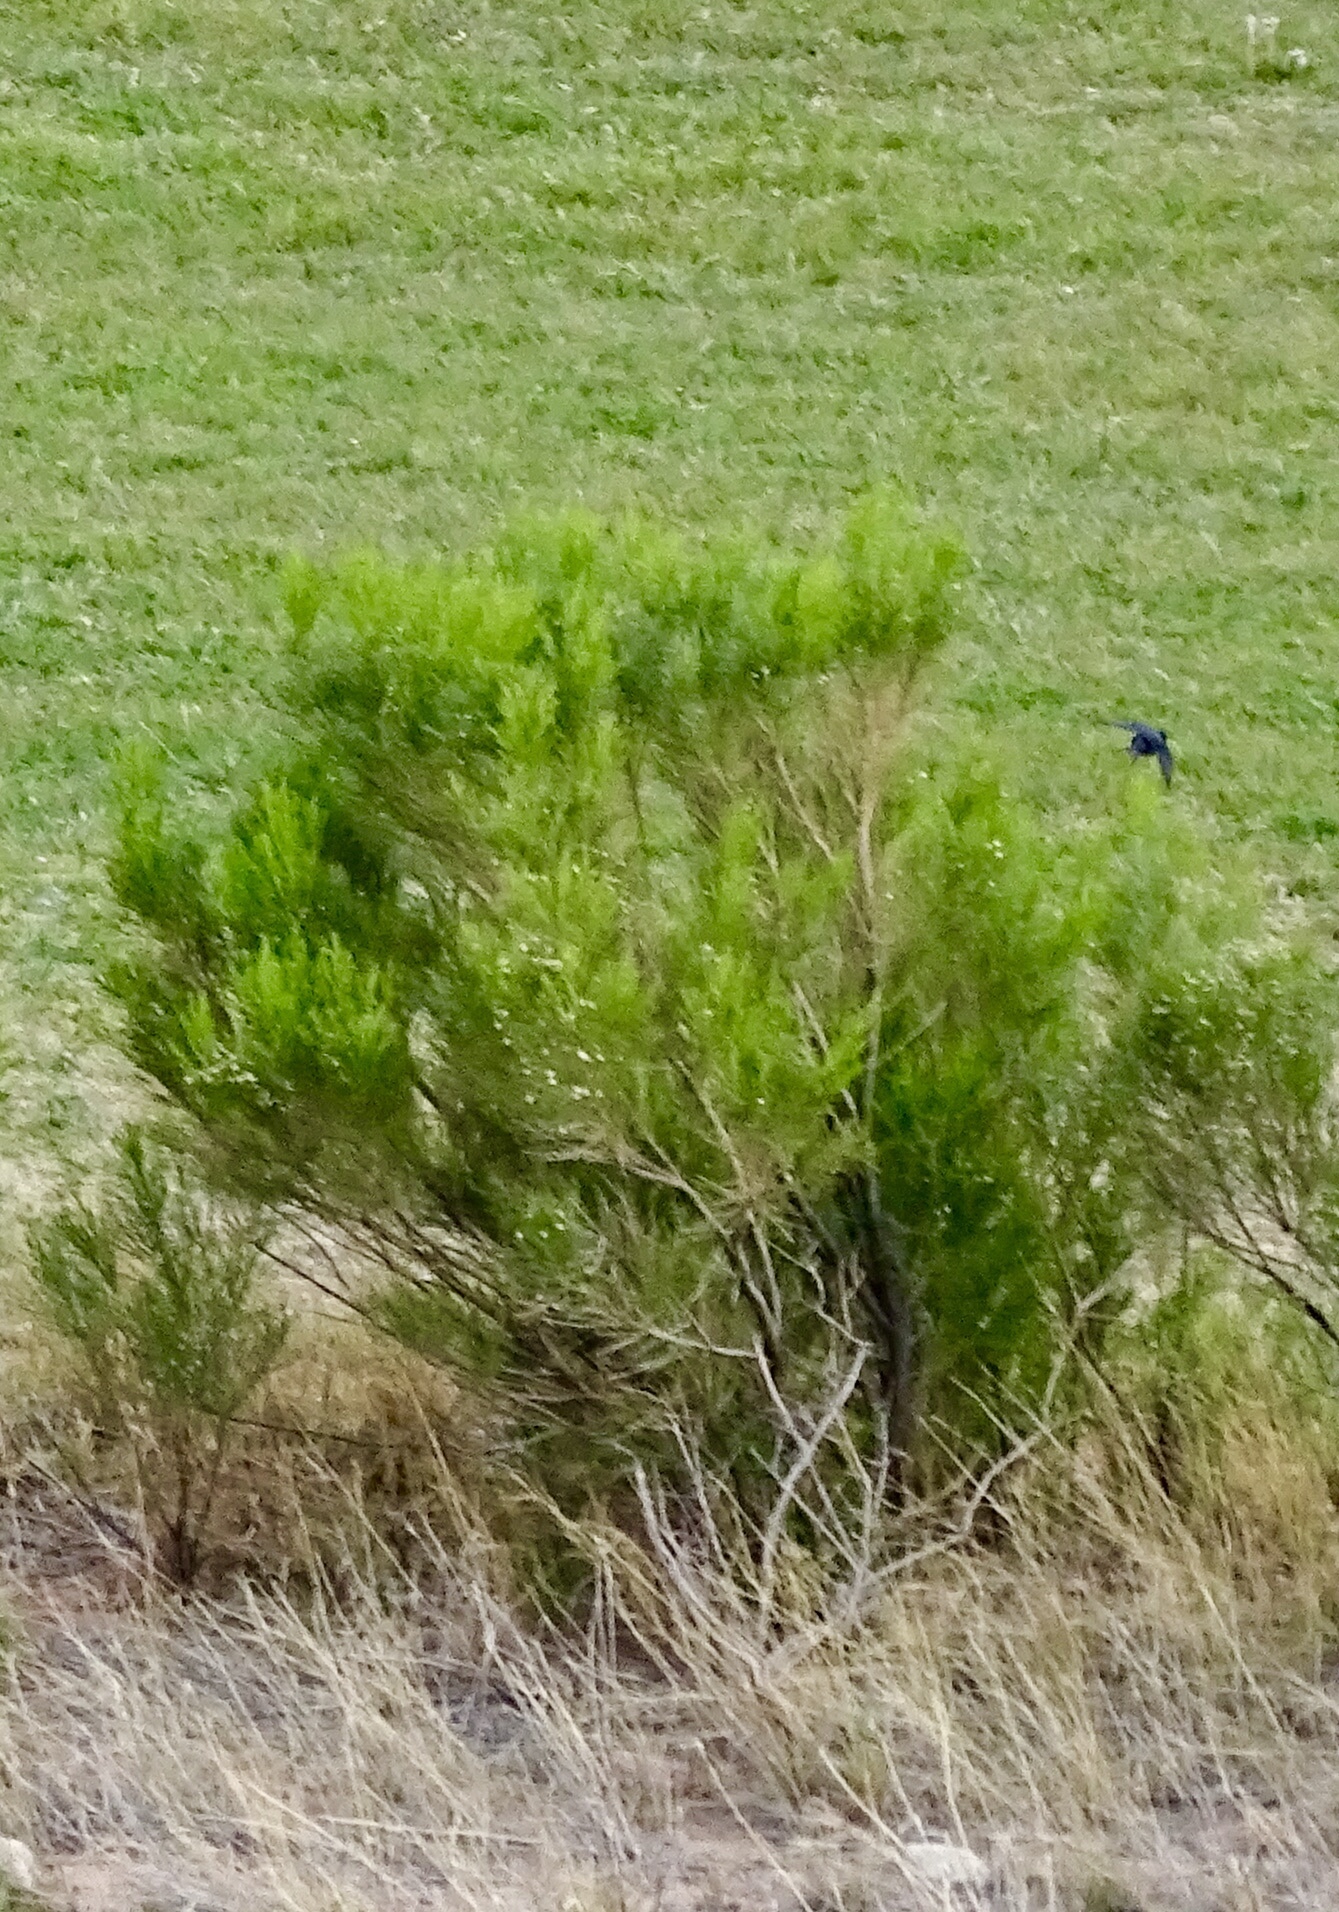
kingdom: Plantae
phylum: Tracheophyta
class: Magnoliopsida
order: Asterales
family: Asteraceae
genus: Baccharis
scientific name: Baccharis sarothroides
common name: Desert-broom
